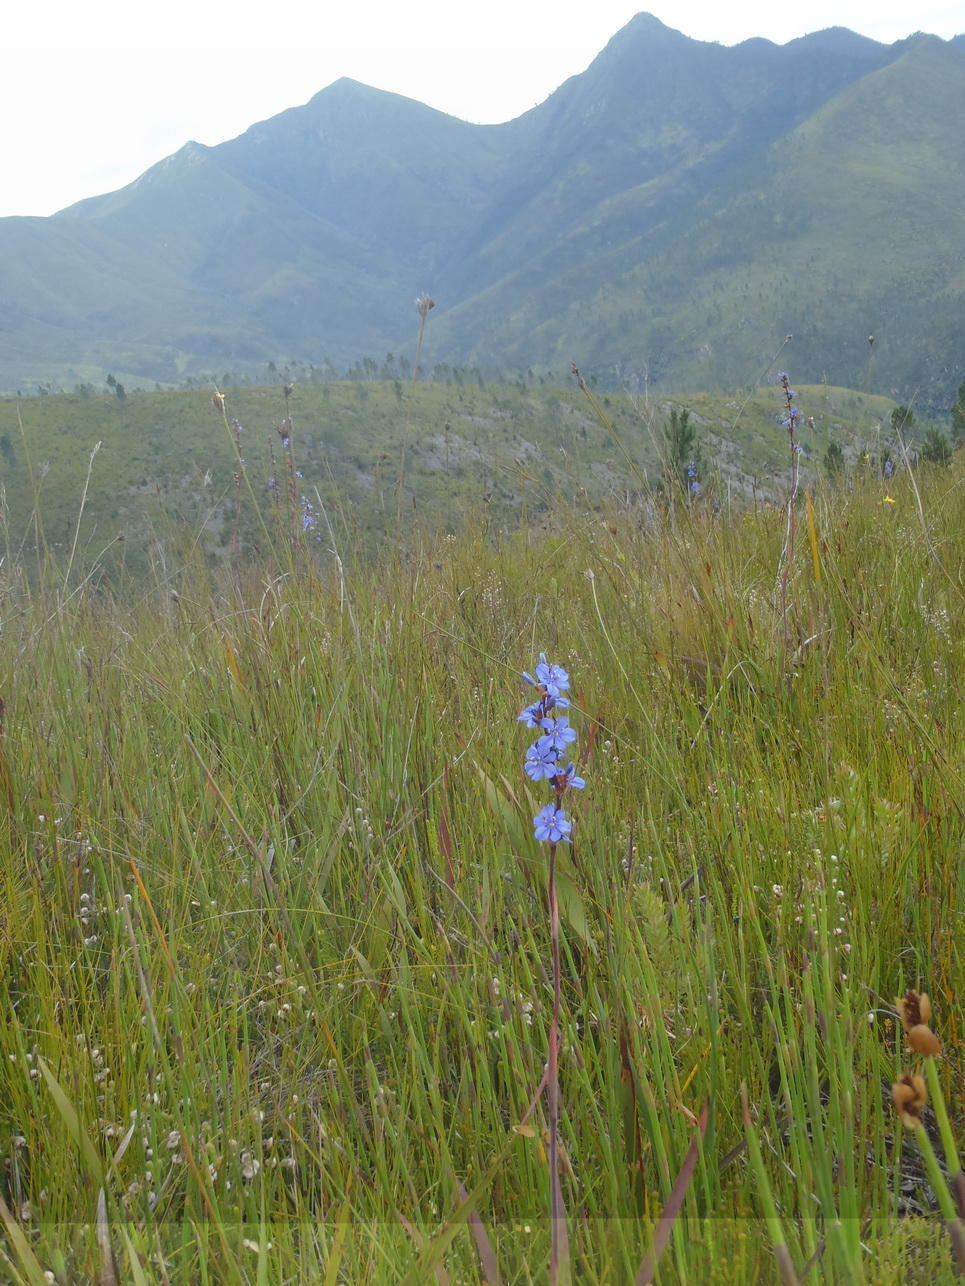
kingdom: Plantae
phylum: Tracheophyta
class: Liliopsida
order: Asparagales
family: Iridaceae
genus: Aristea
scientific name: Aristea bakeri
